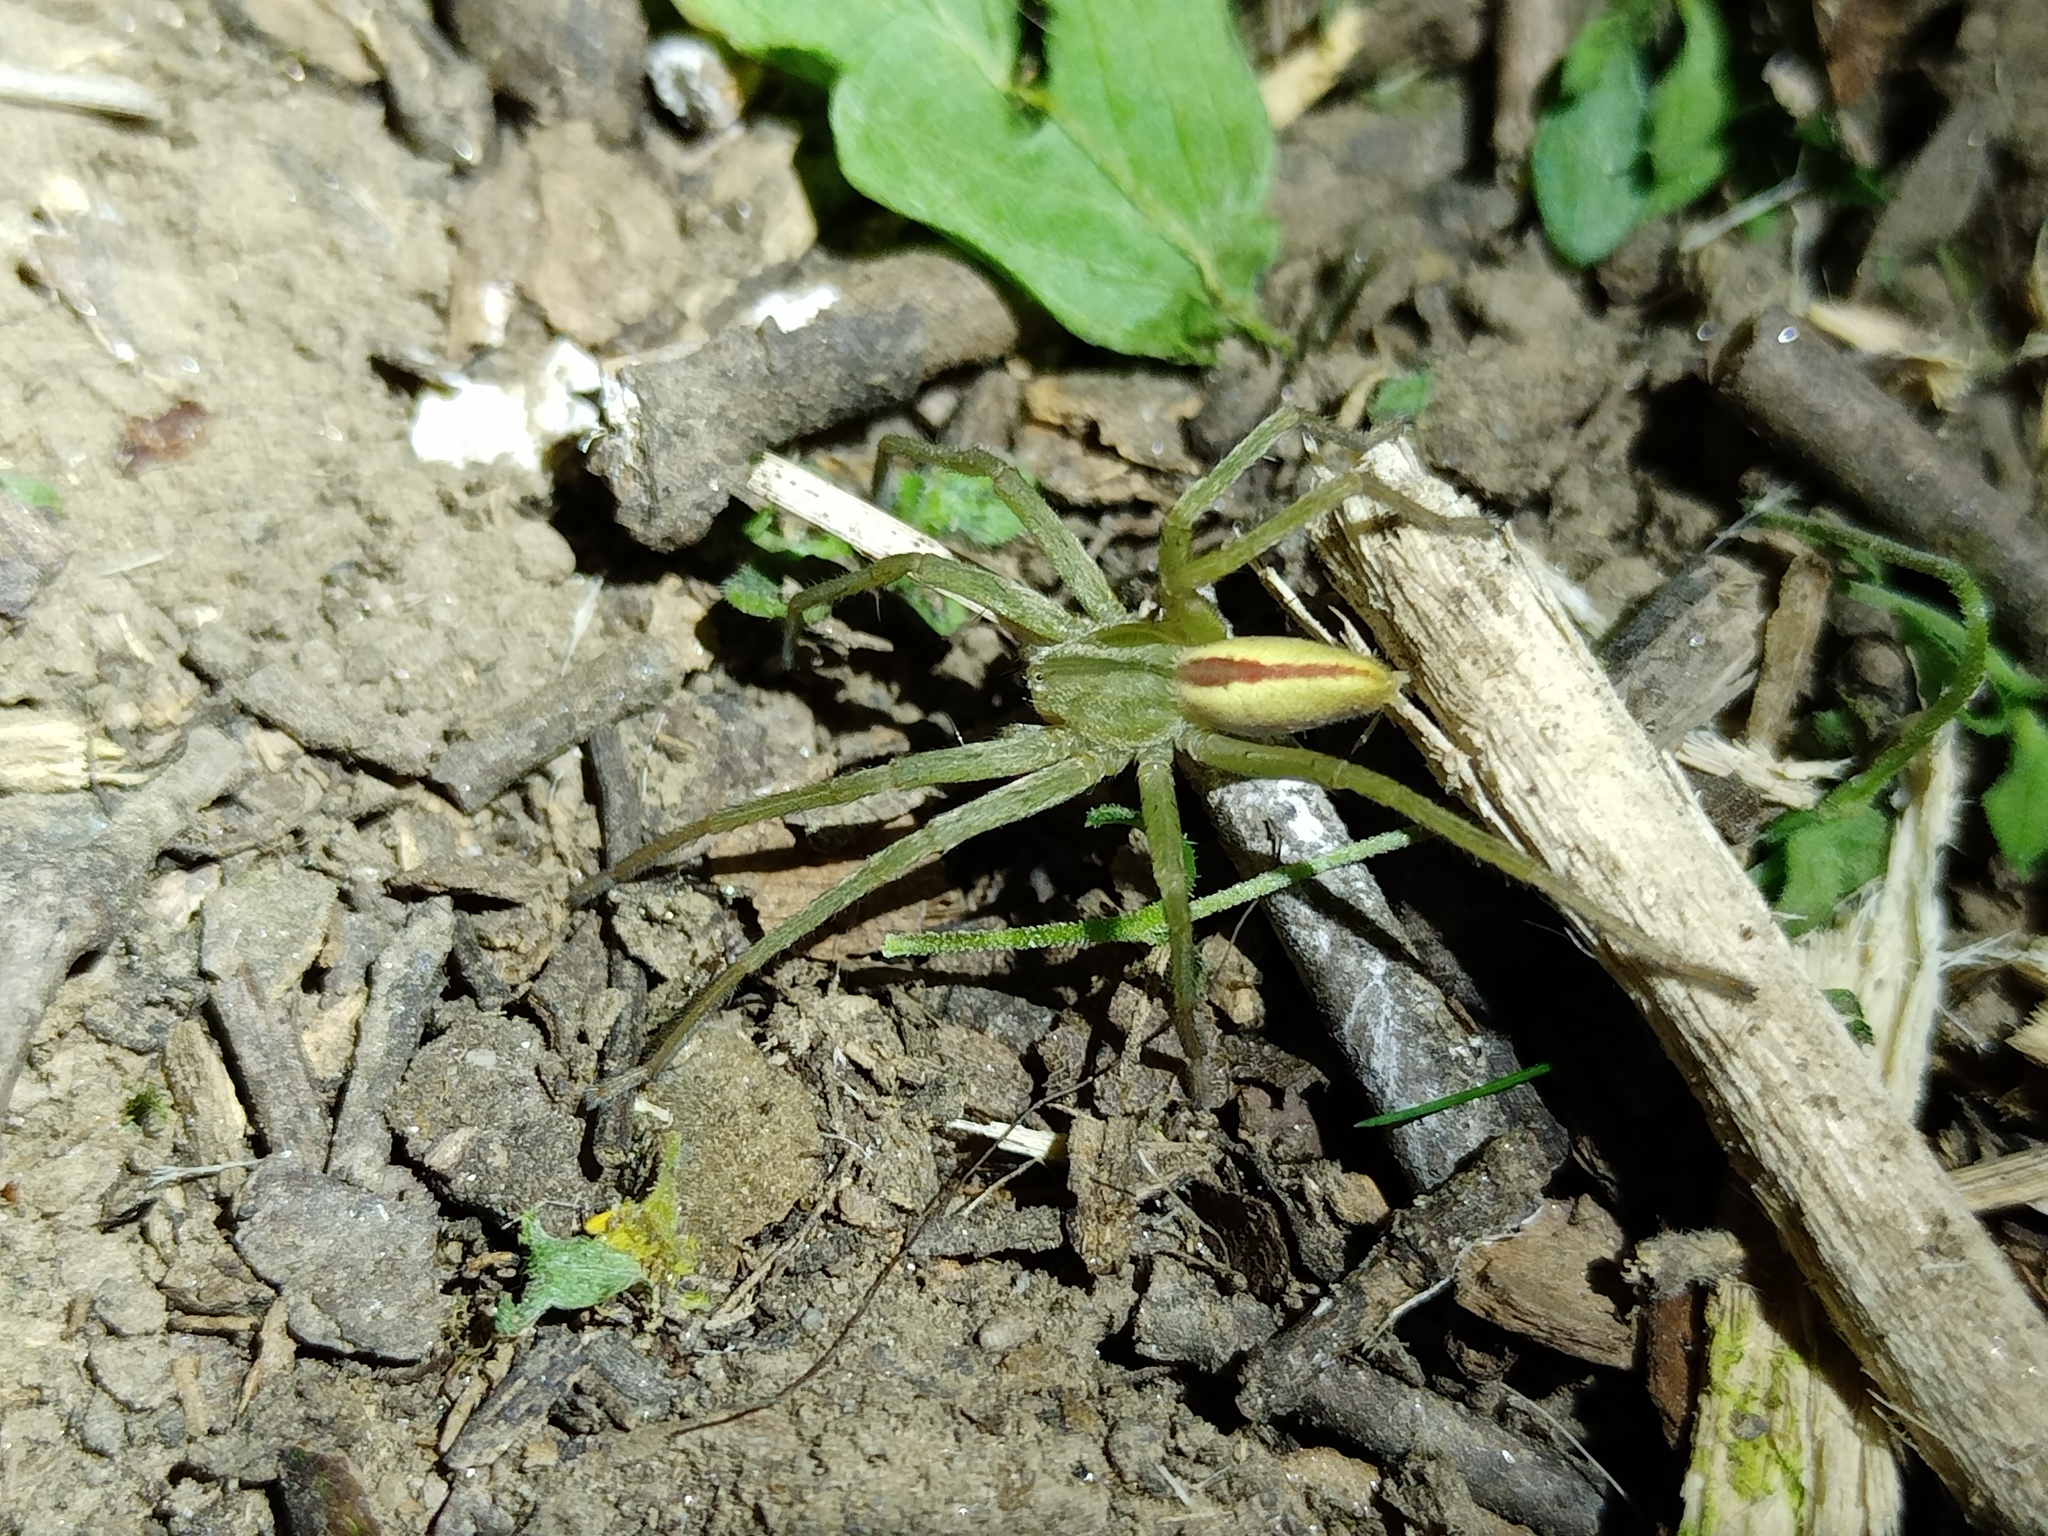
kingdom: Animalia
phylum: Arthropoda
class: Arachnida
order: Araneae
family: Sparassidae
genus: Micrommata
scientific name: Micrommata virescens
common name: Green spider
